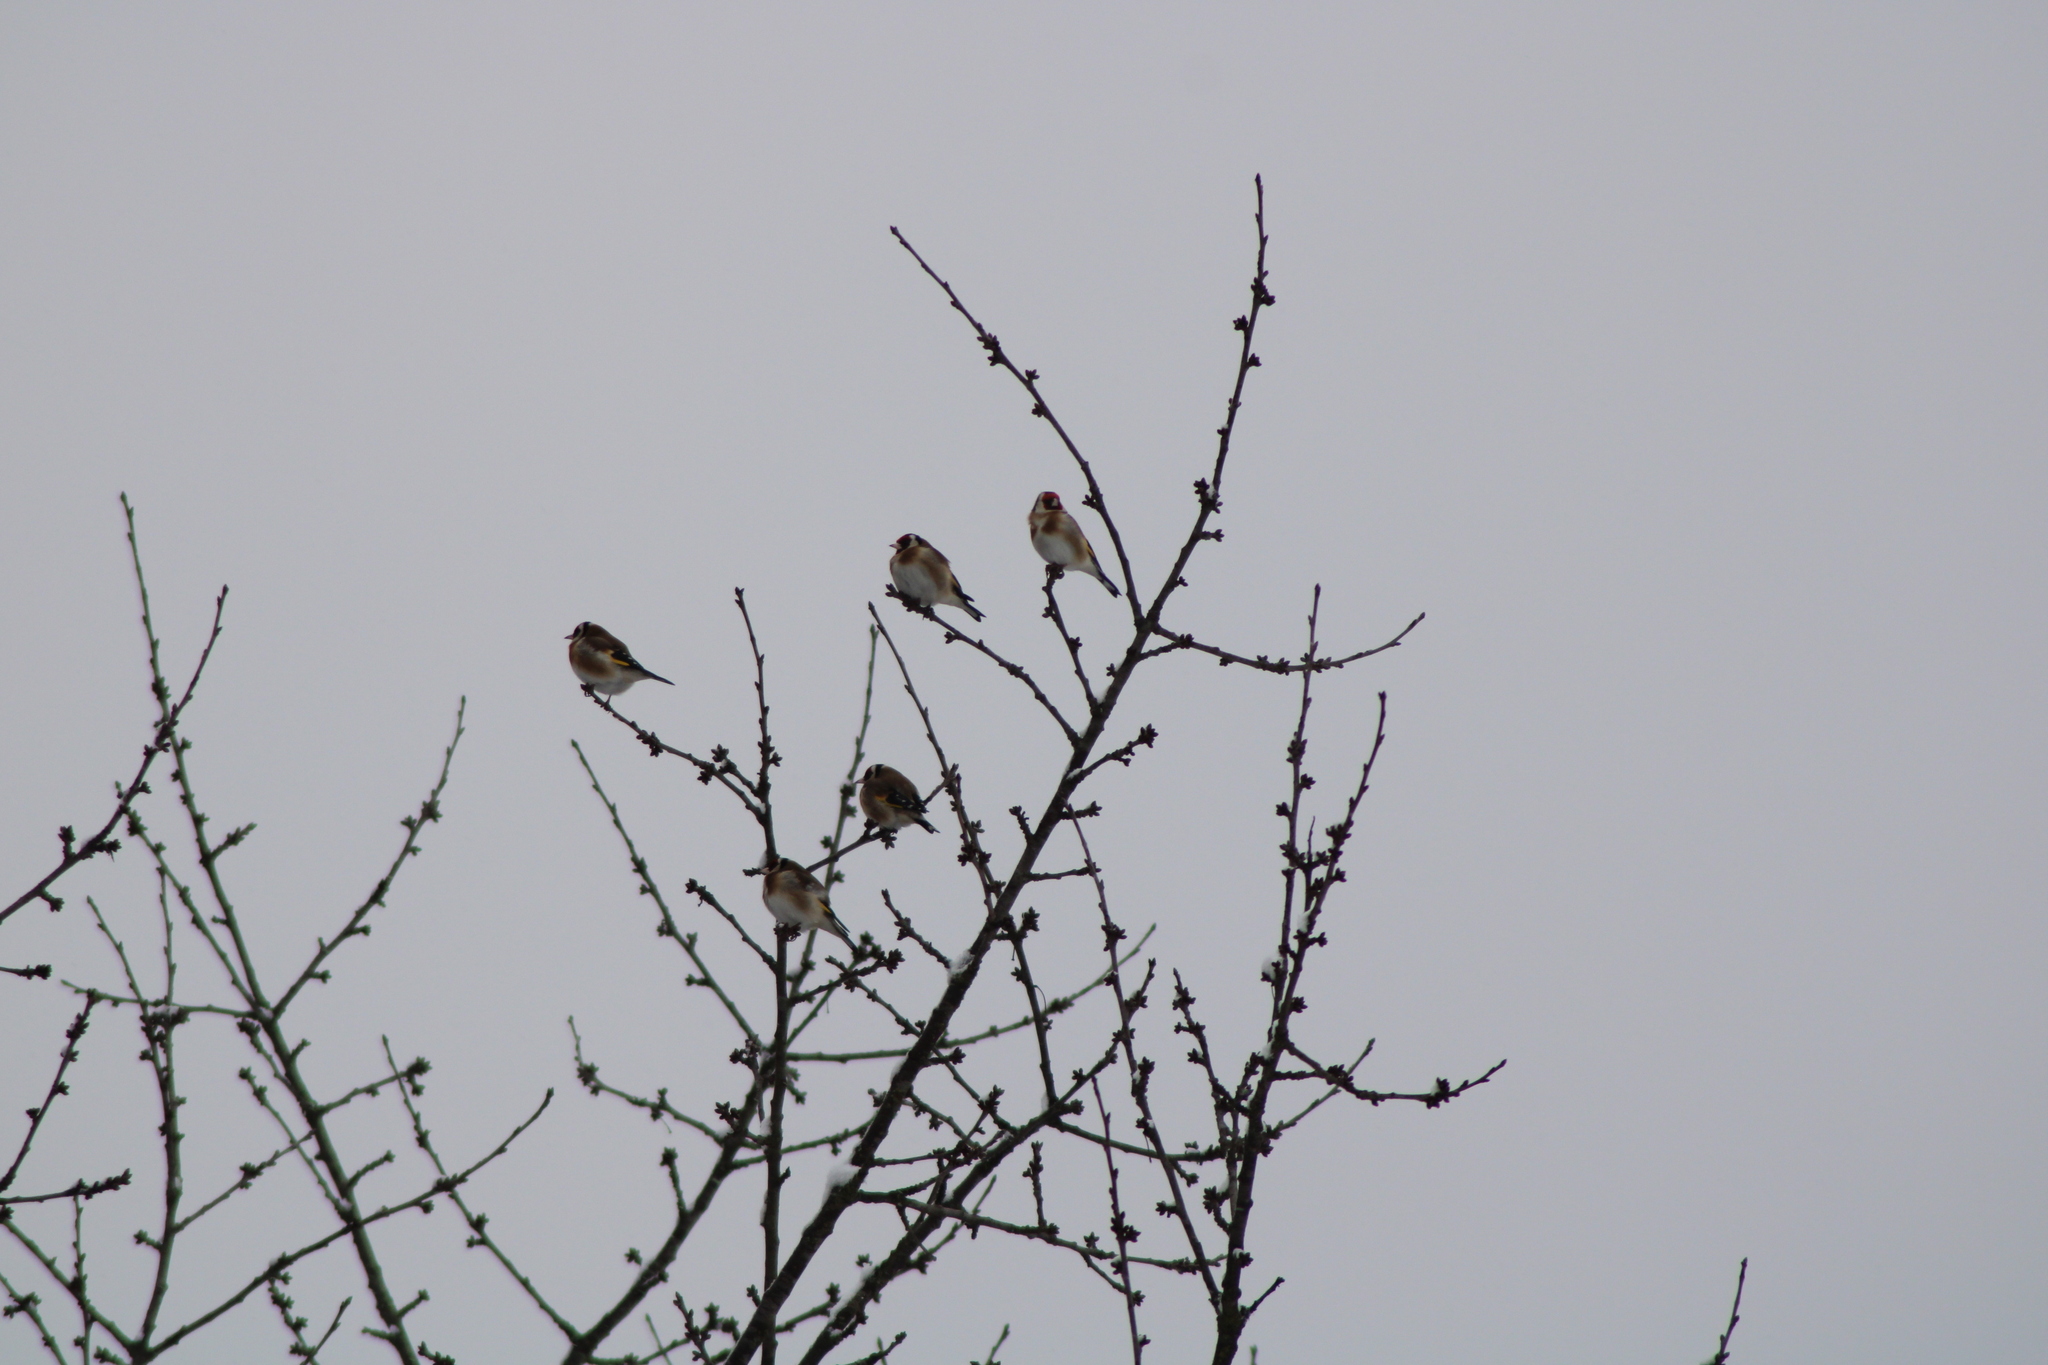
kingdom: Animalia
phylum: Chordata
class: Aves
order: Passeriformes
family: Fringillidae
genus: Carduelis
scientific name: Carduelis carduelis
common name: European goldfinch
